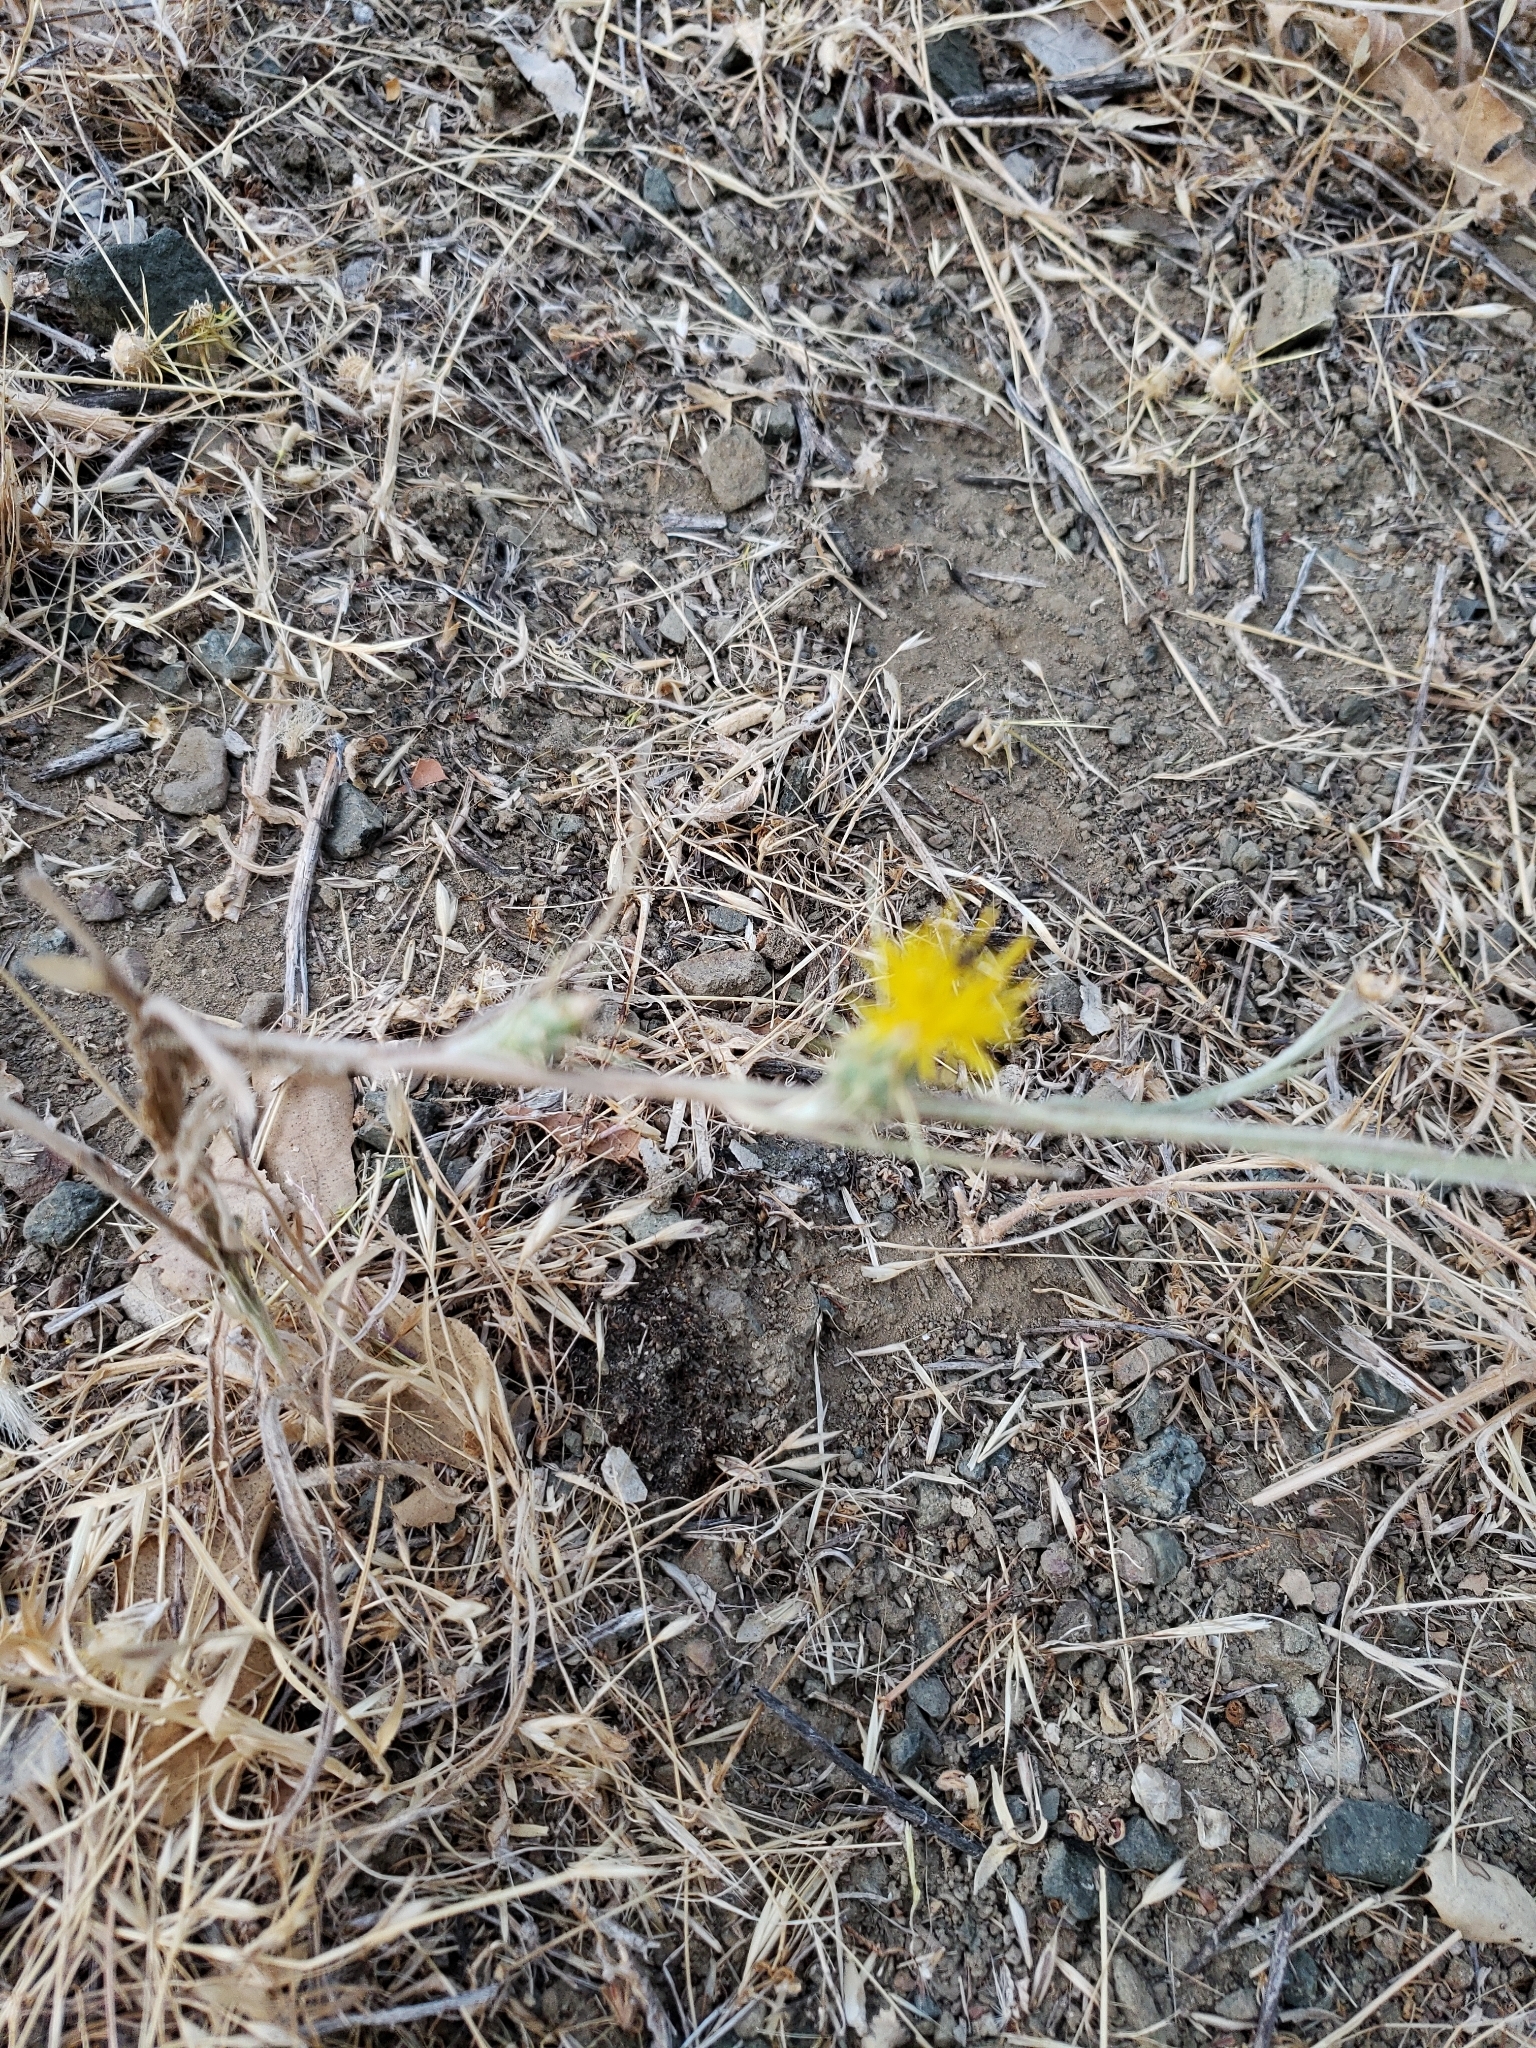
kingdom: Plantae
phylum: Tracheophyta
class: Magnoliopsida
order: Asterales
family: Asteraceae
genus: Centaurea
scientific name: Centaurea solstitialis
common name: Yellow star-thistle
